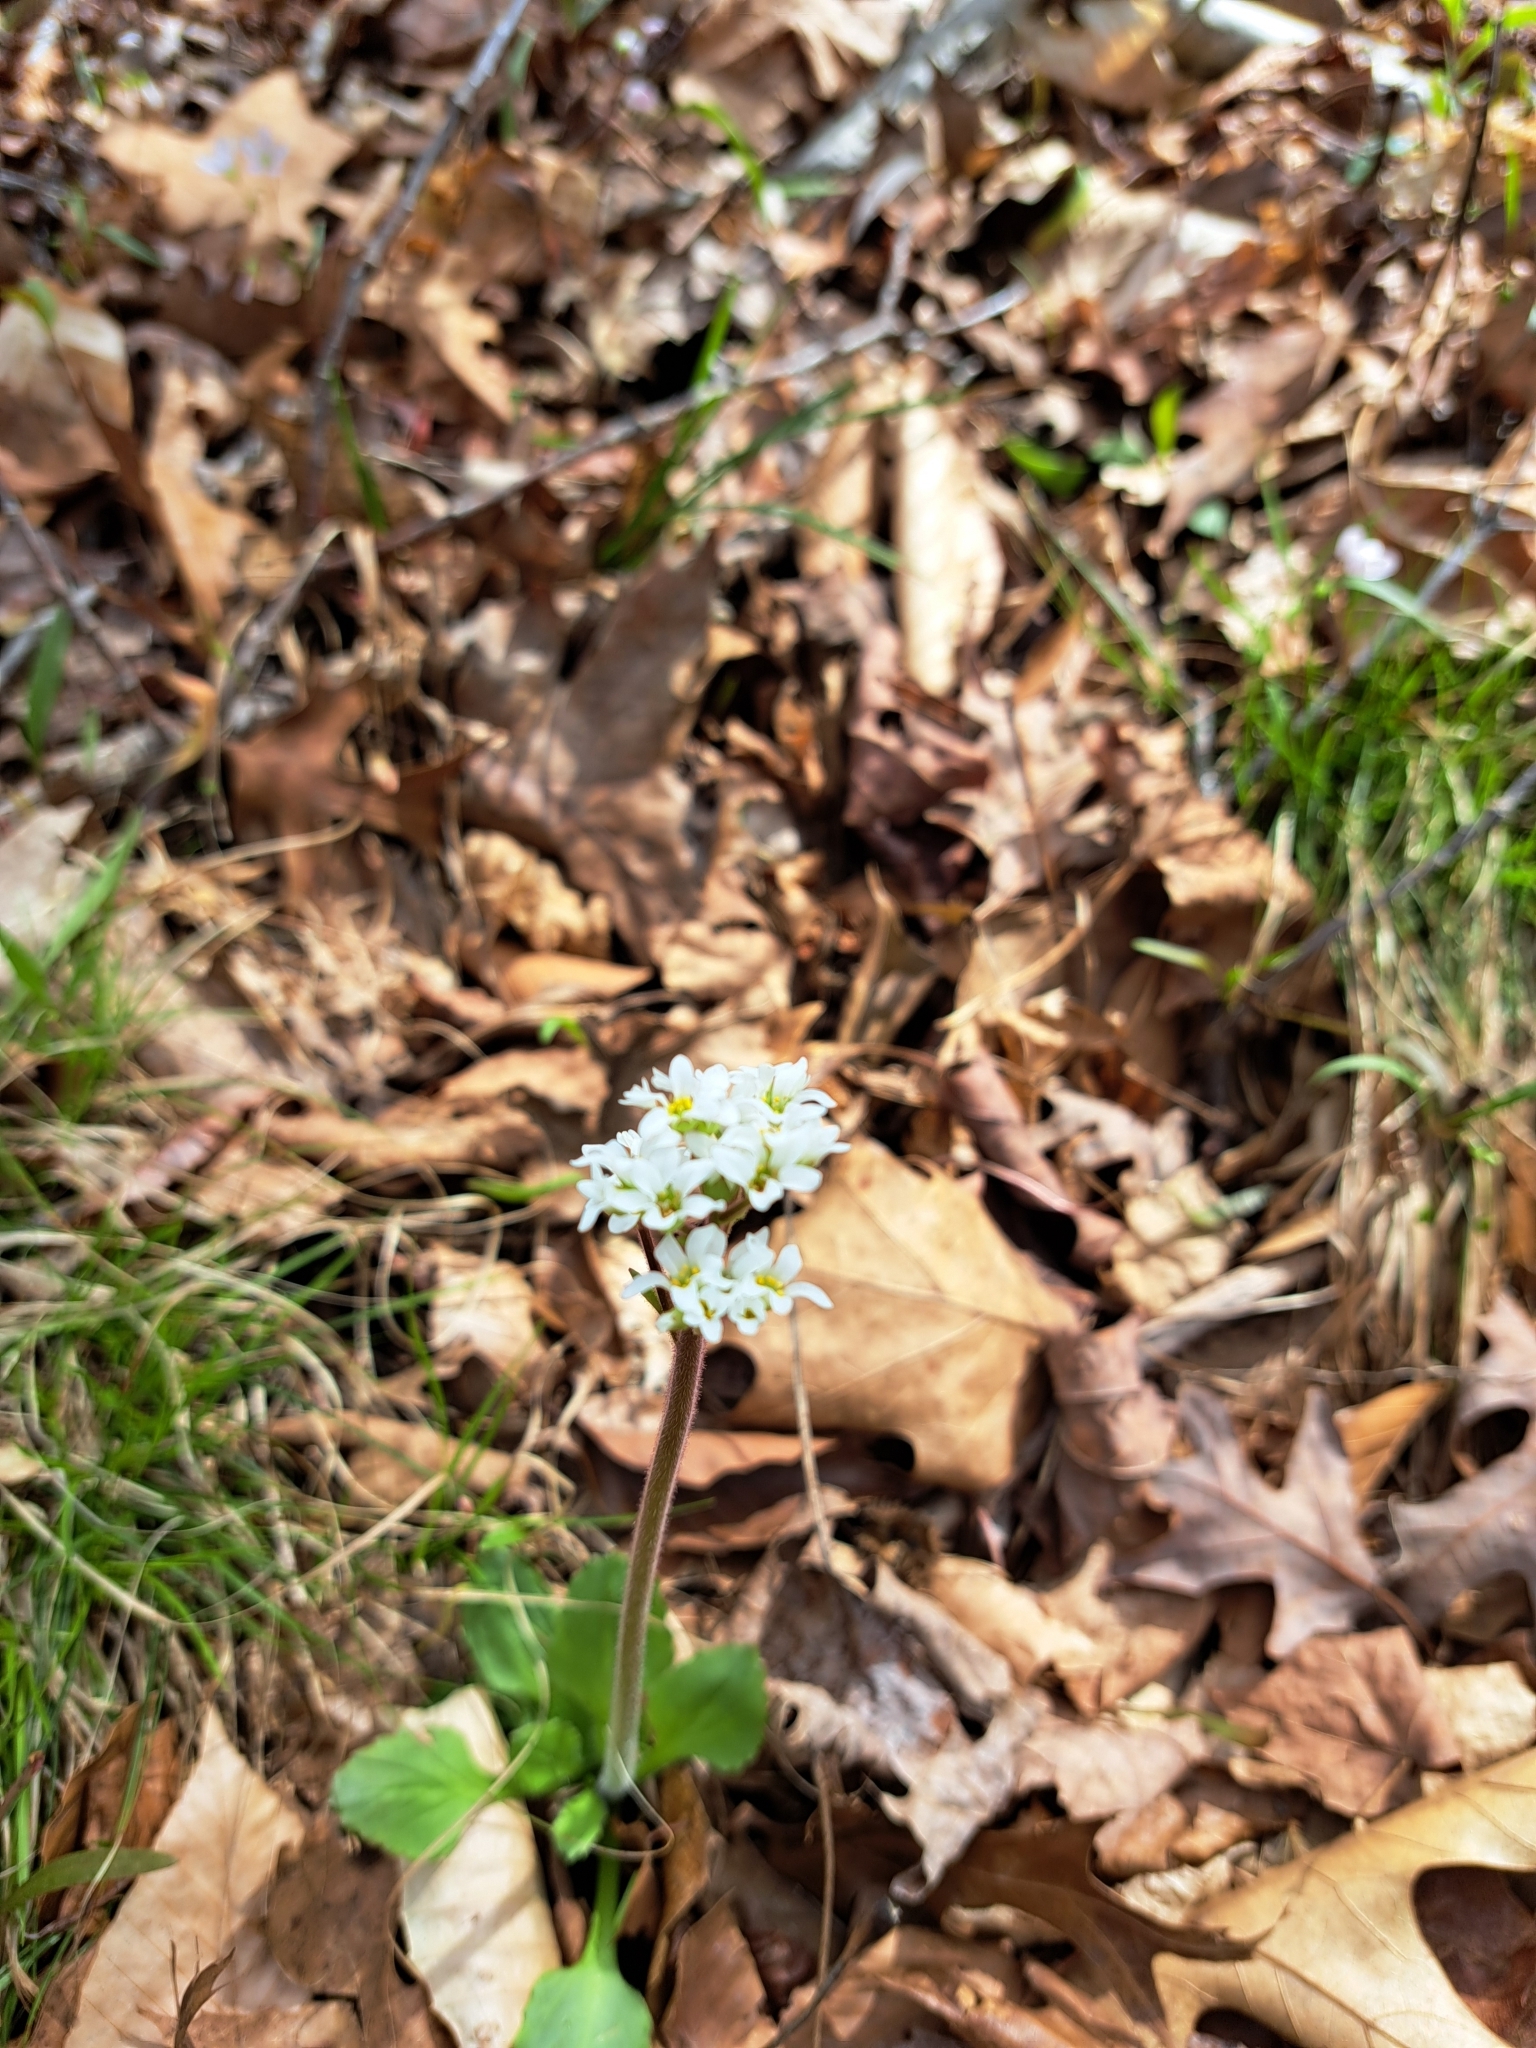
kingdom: Plantae
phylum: Tracheophyta
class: Magnoliopsida
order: Saxifragales
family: Saxifragaceae
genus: Micranthes
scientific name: Micranthes virginiensis
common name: Early saxifrage
